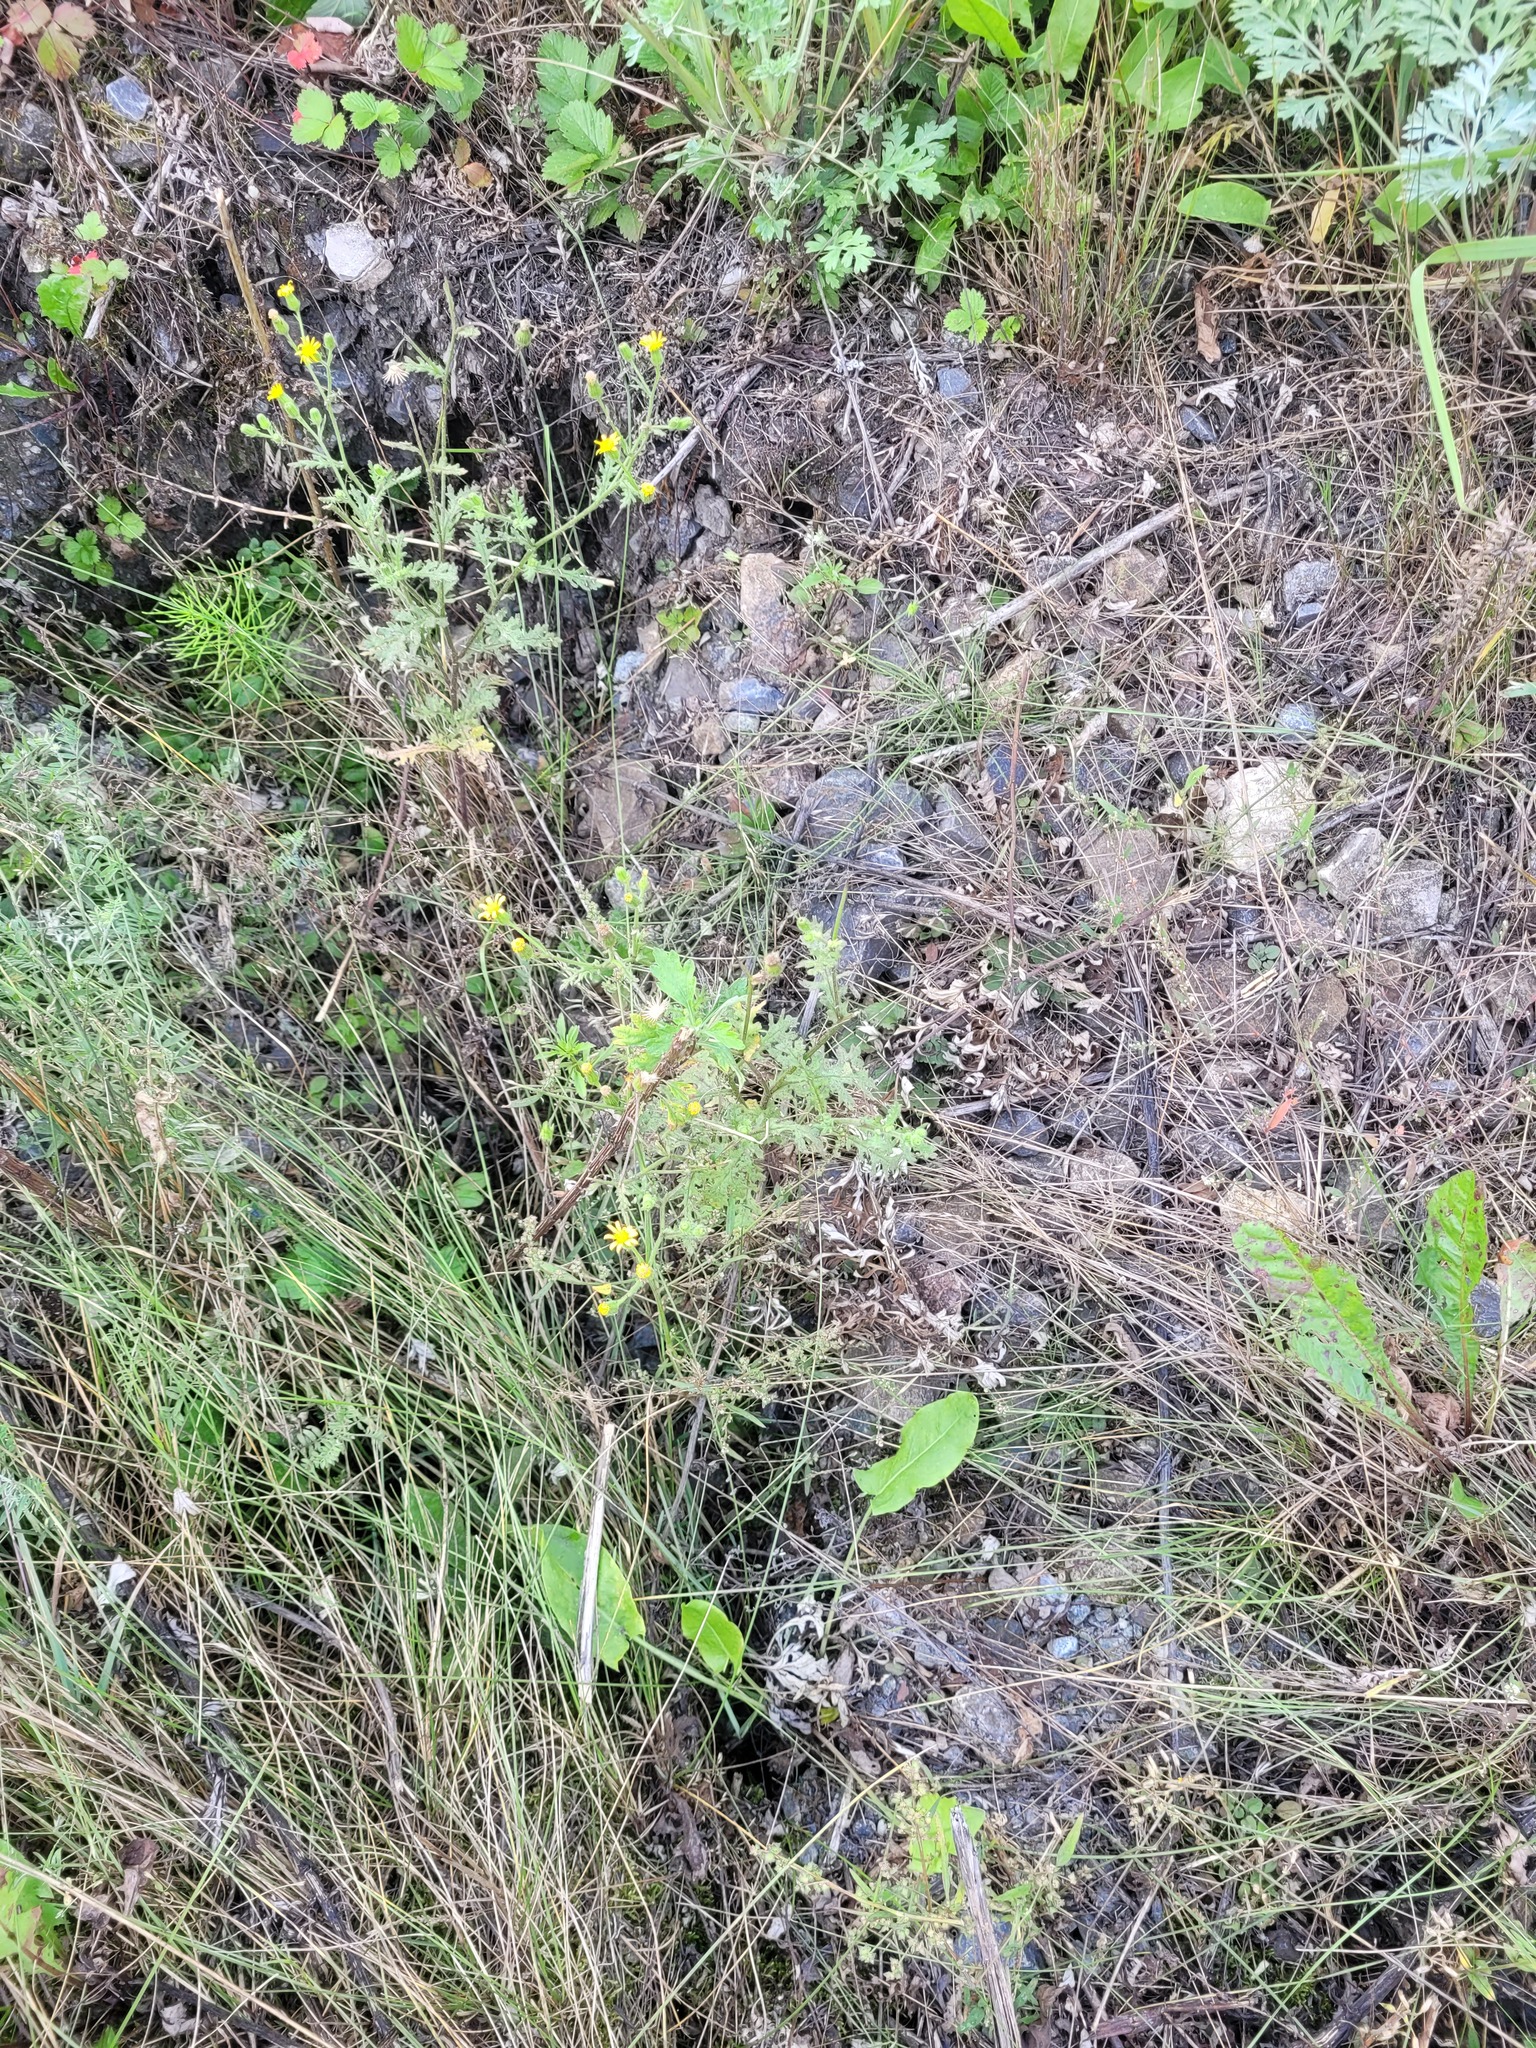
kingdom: Plantae
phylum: Tracheophyta
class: Magnoliopsida
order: Asterales
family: Asteraceae
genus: Senecio
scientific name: Senecio viscosus
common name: Sticky groundsel
